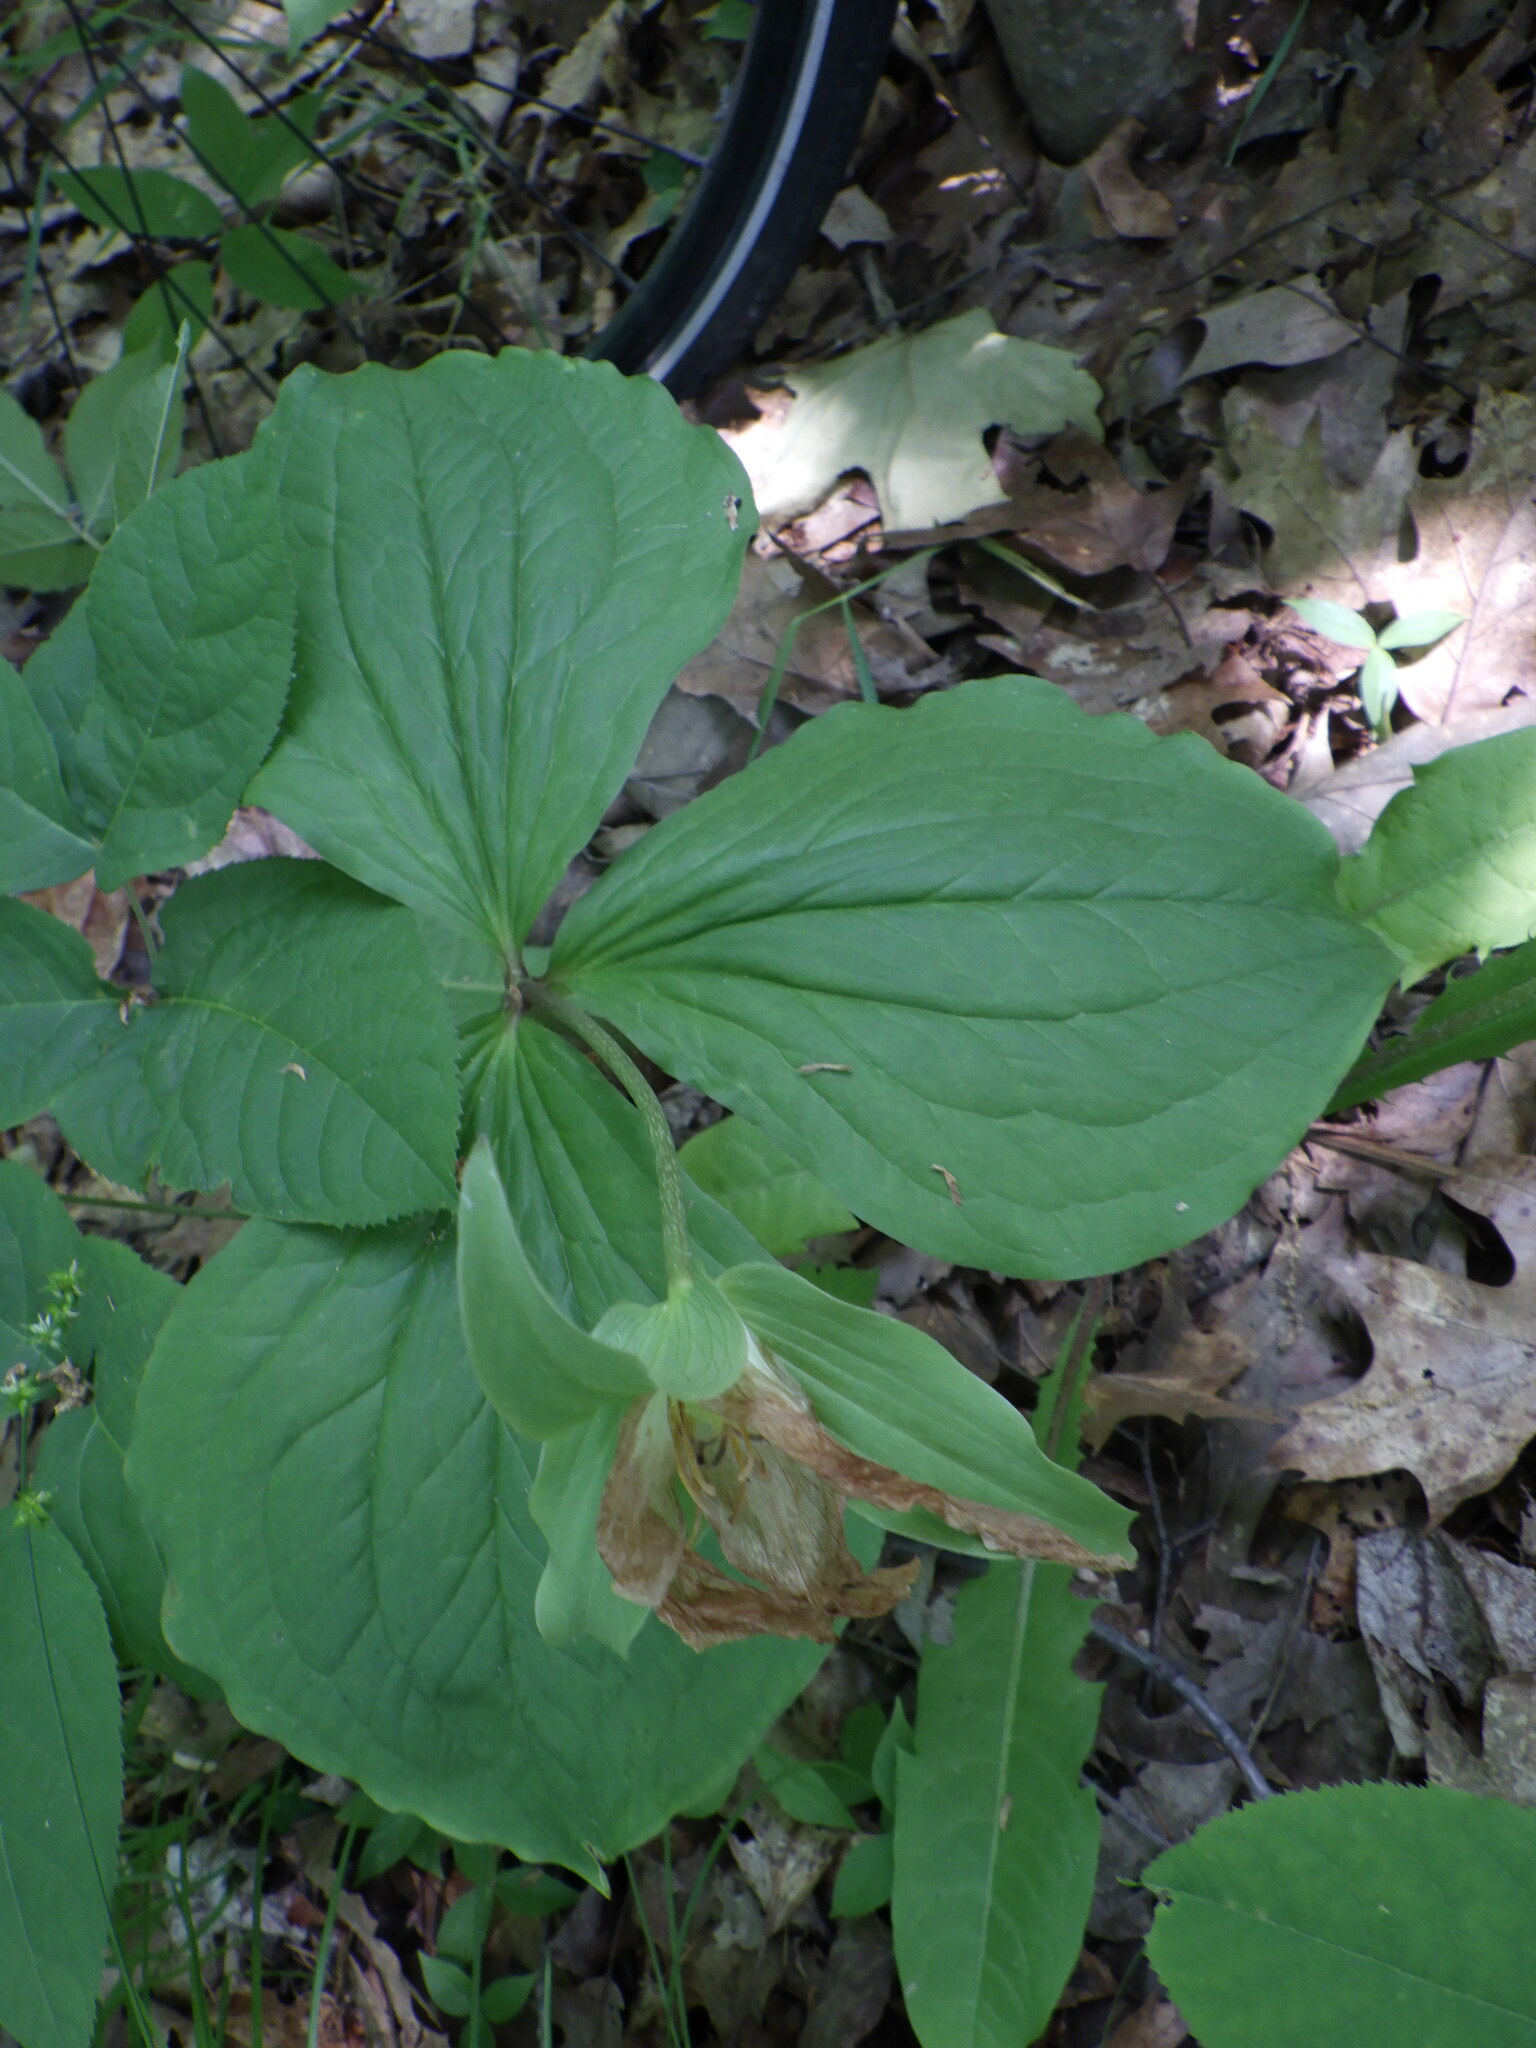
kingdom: Plantae
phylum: Tracheophyta
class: Liliopsida
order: Liliales
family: Melanthiaceae
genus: Trillium
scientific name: Trillium grandiflorum
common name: Great white trillium
